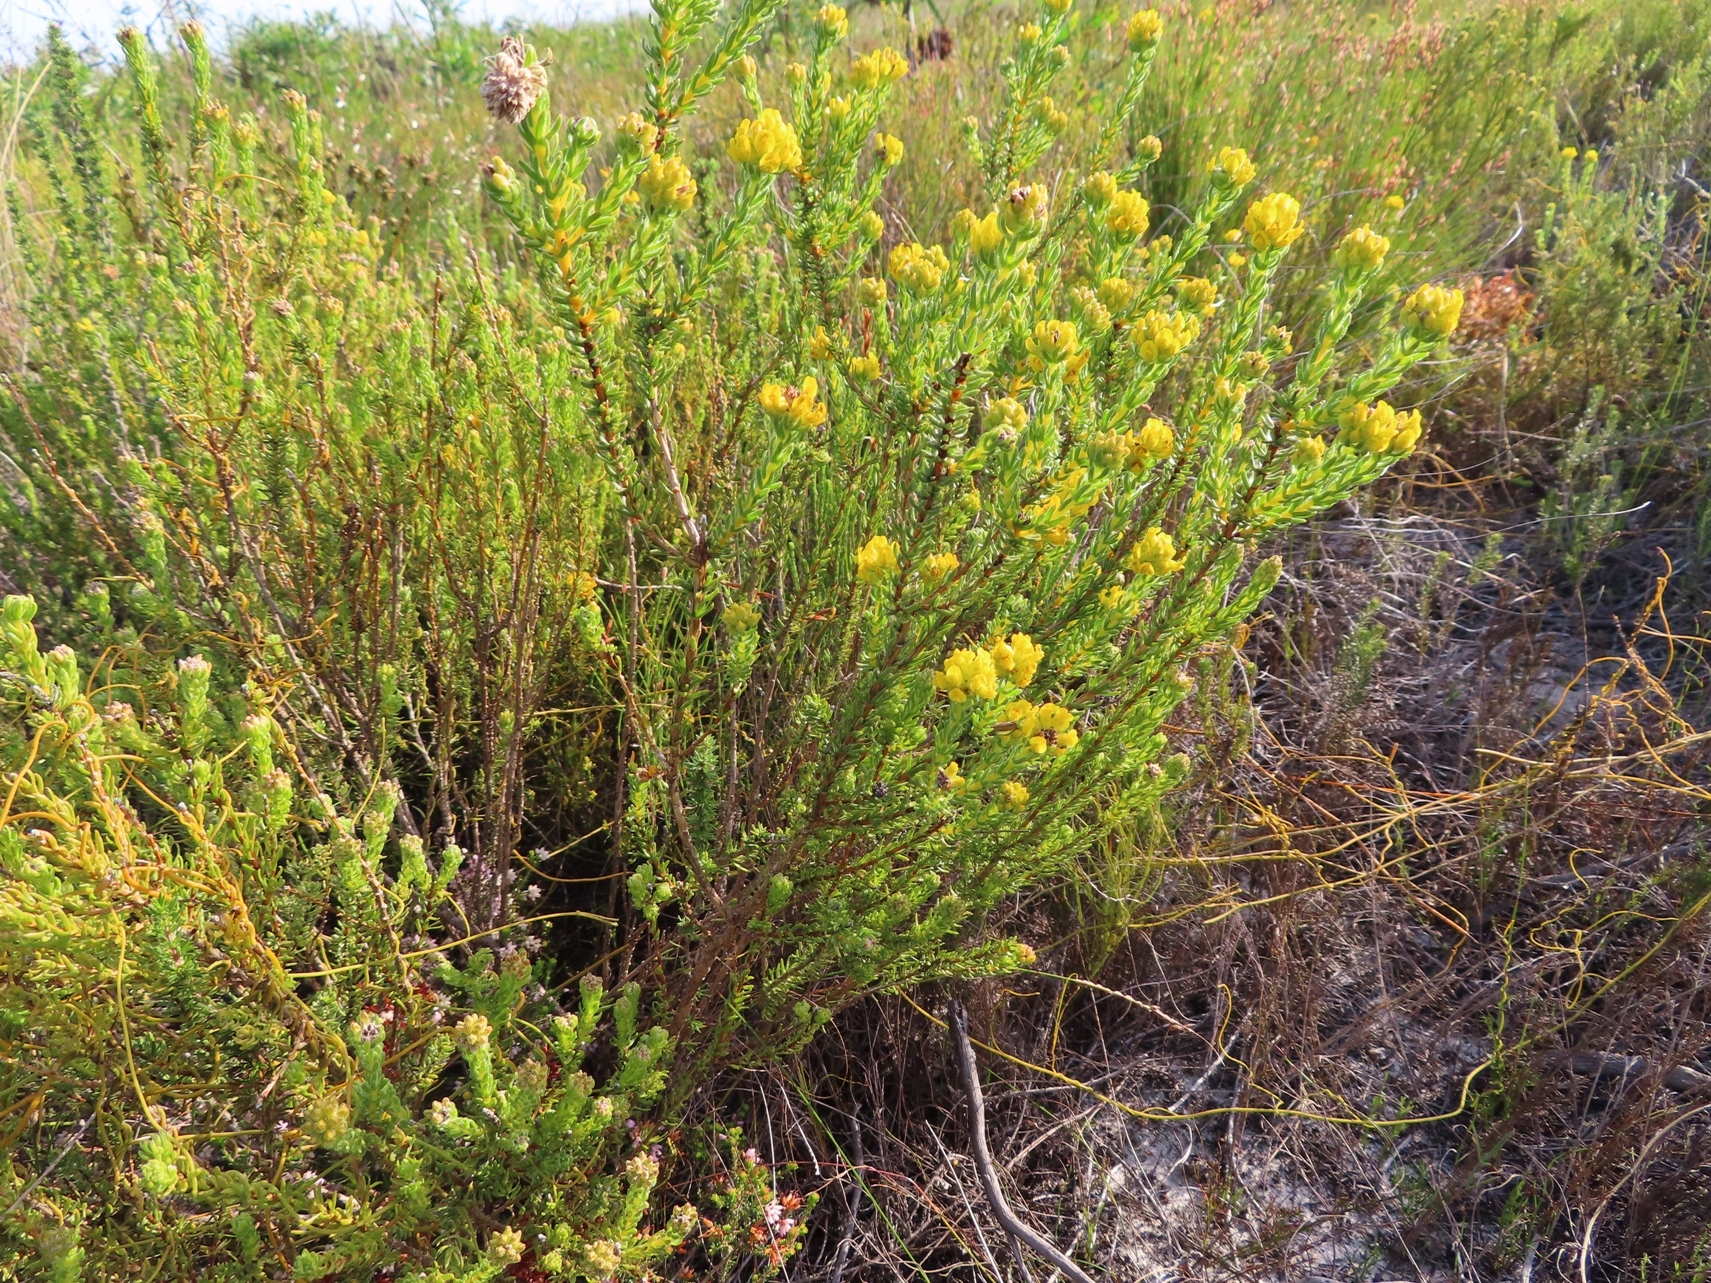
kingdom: Plantae
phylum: Tracheophyta
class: Magnoliopsida
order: Fabales
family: Fabaceae
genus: Aspalathus
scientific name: Aspalathus callosa
